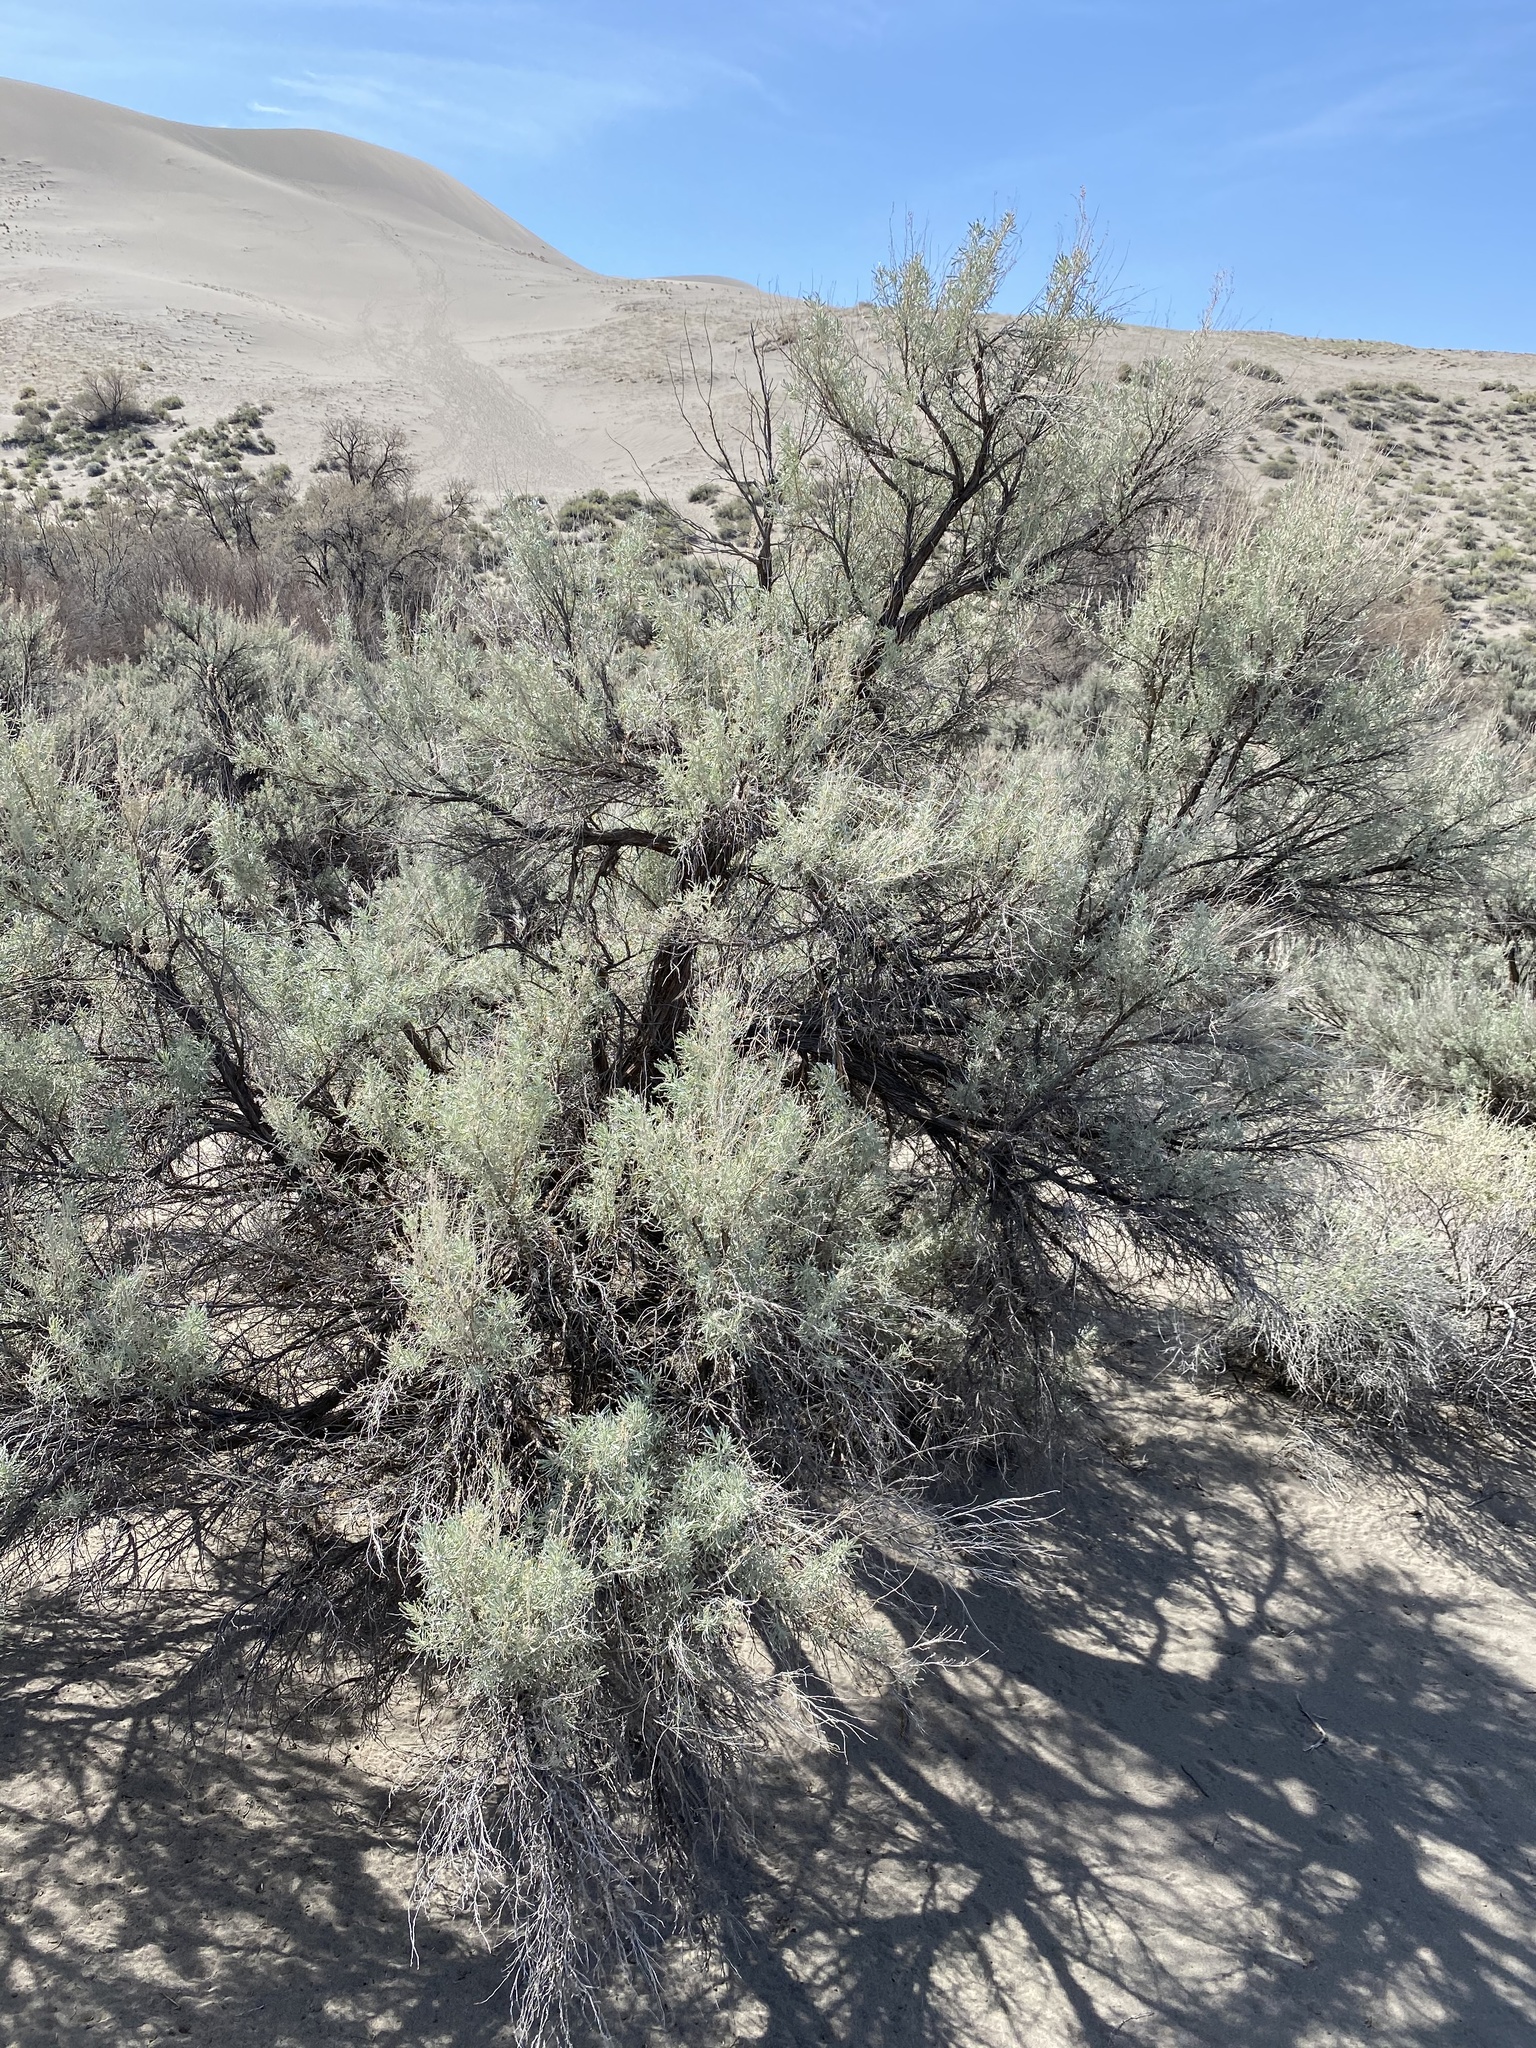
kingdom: Plantae
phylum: Tracheophyta
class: Magnoliopsida
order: Asterales
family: Asteraceae
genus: Artemisia
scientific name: Artemisia tridentata
